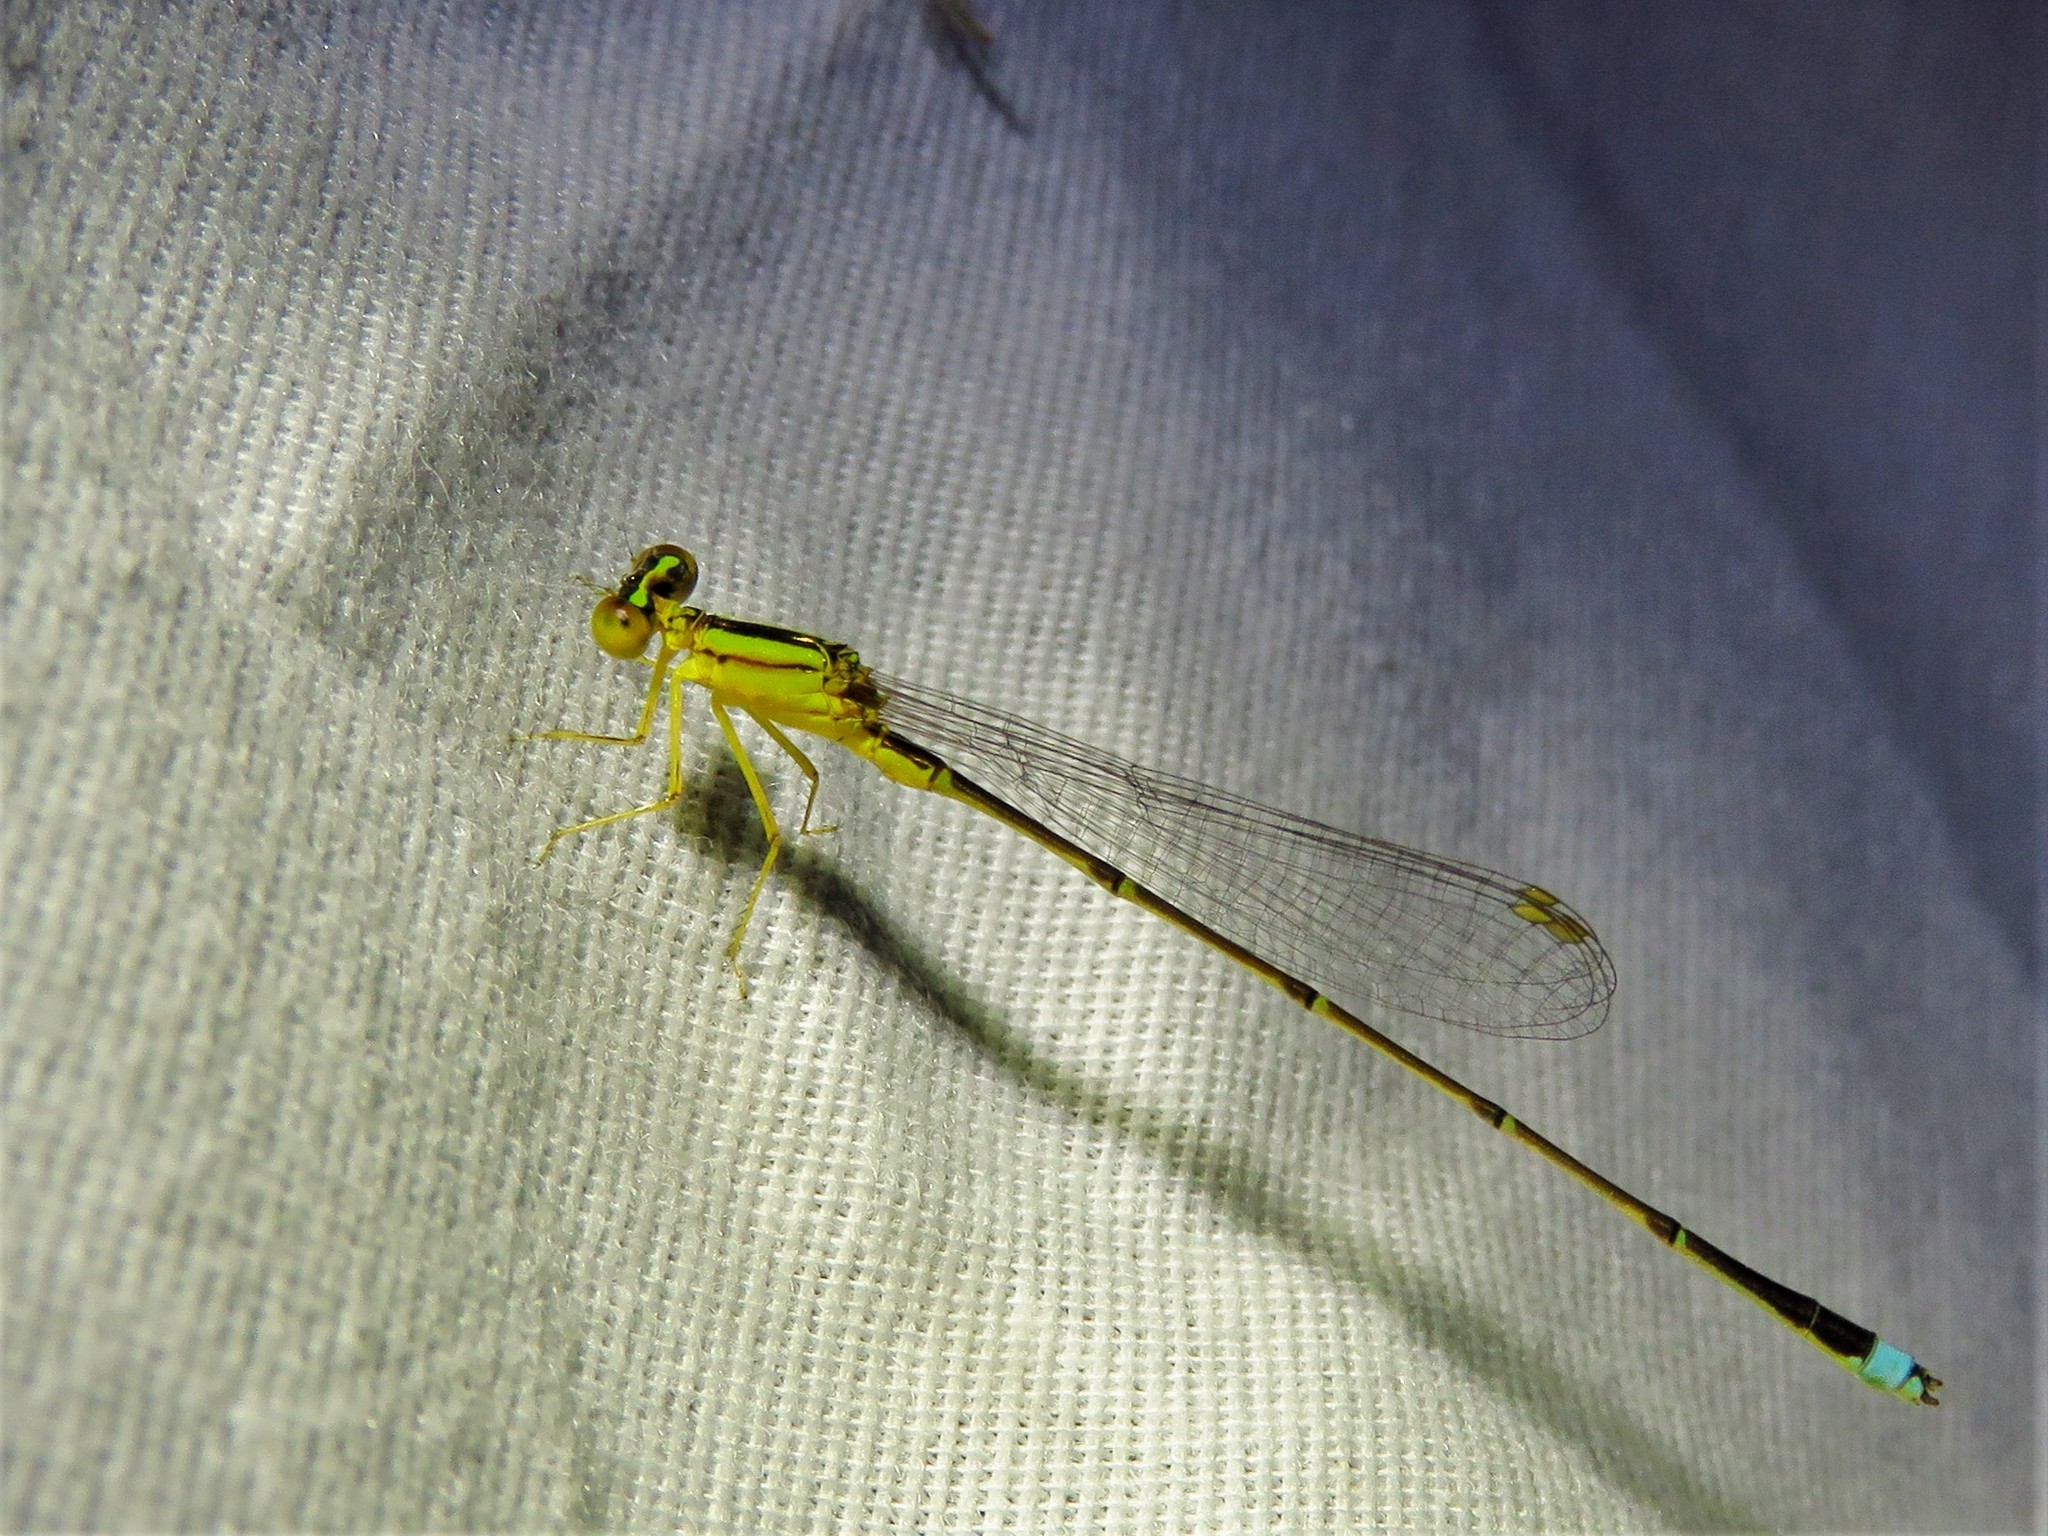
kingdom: Animalia
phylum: Arthropoda
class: Insecta
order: Odonata
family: Coenagrionidae
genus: Enallagma
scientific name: Enallagma vesperum
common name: Vesper bluet
